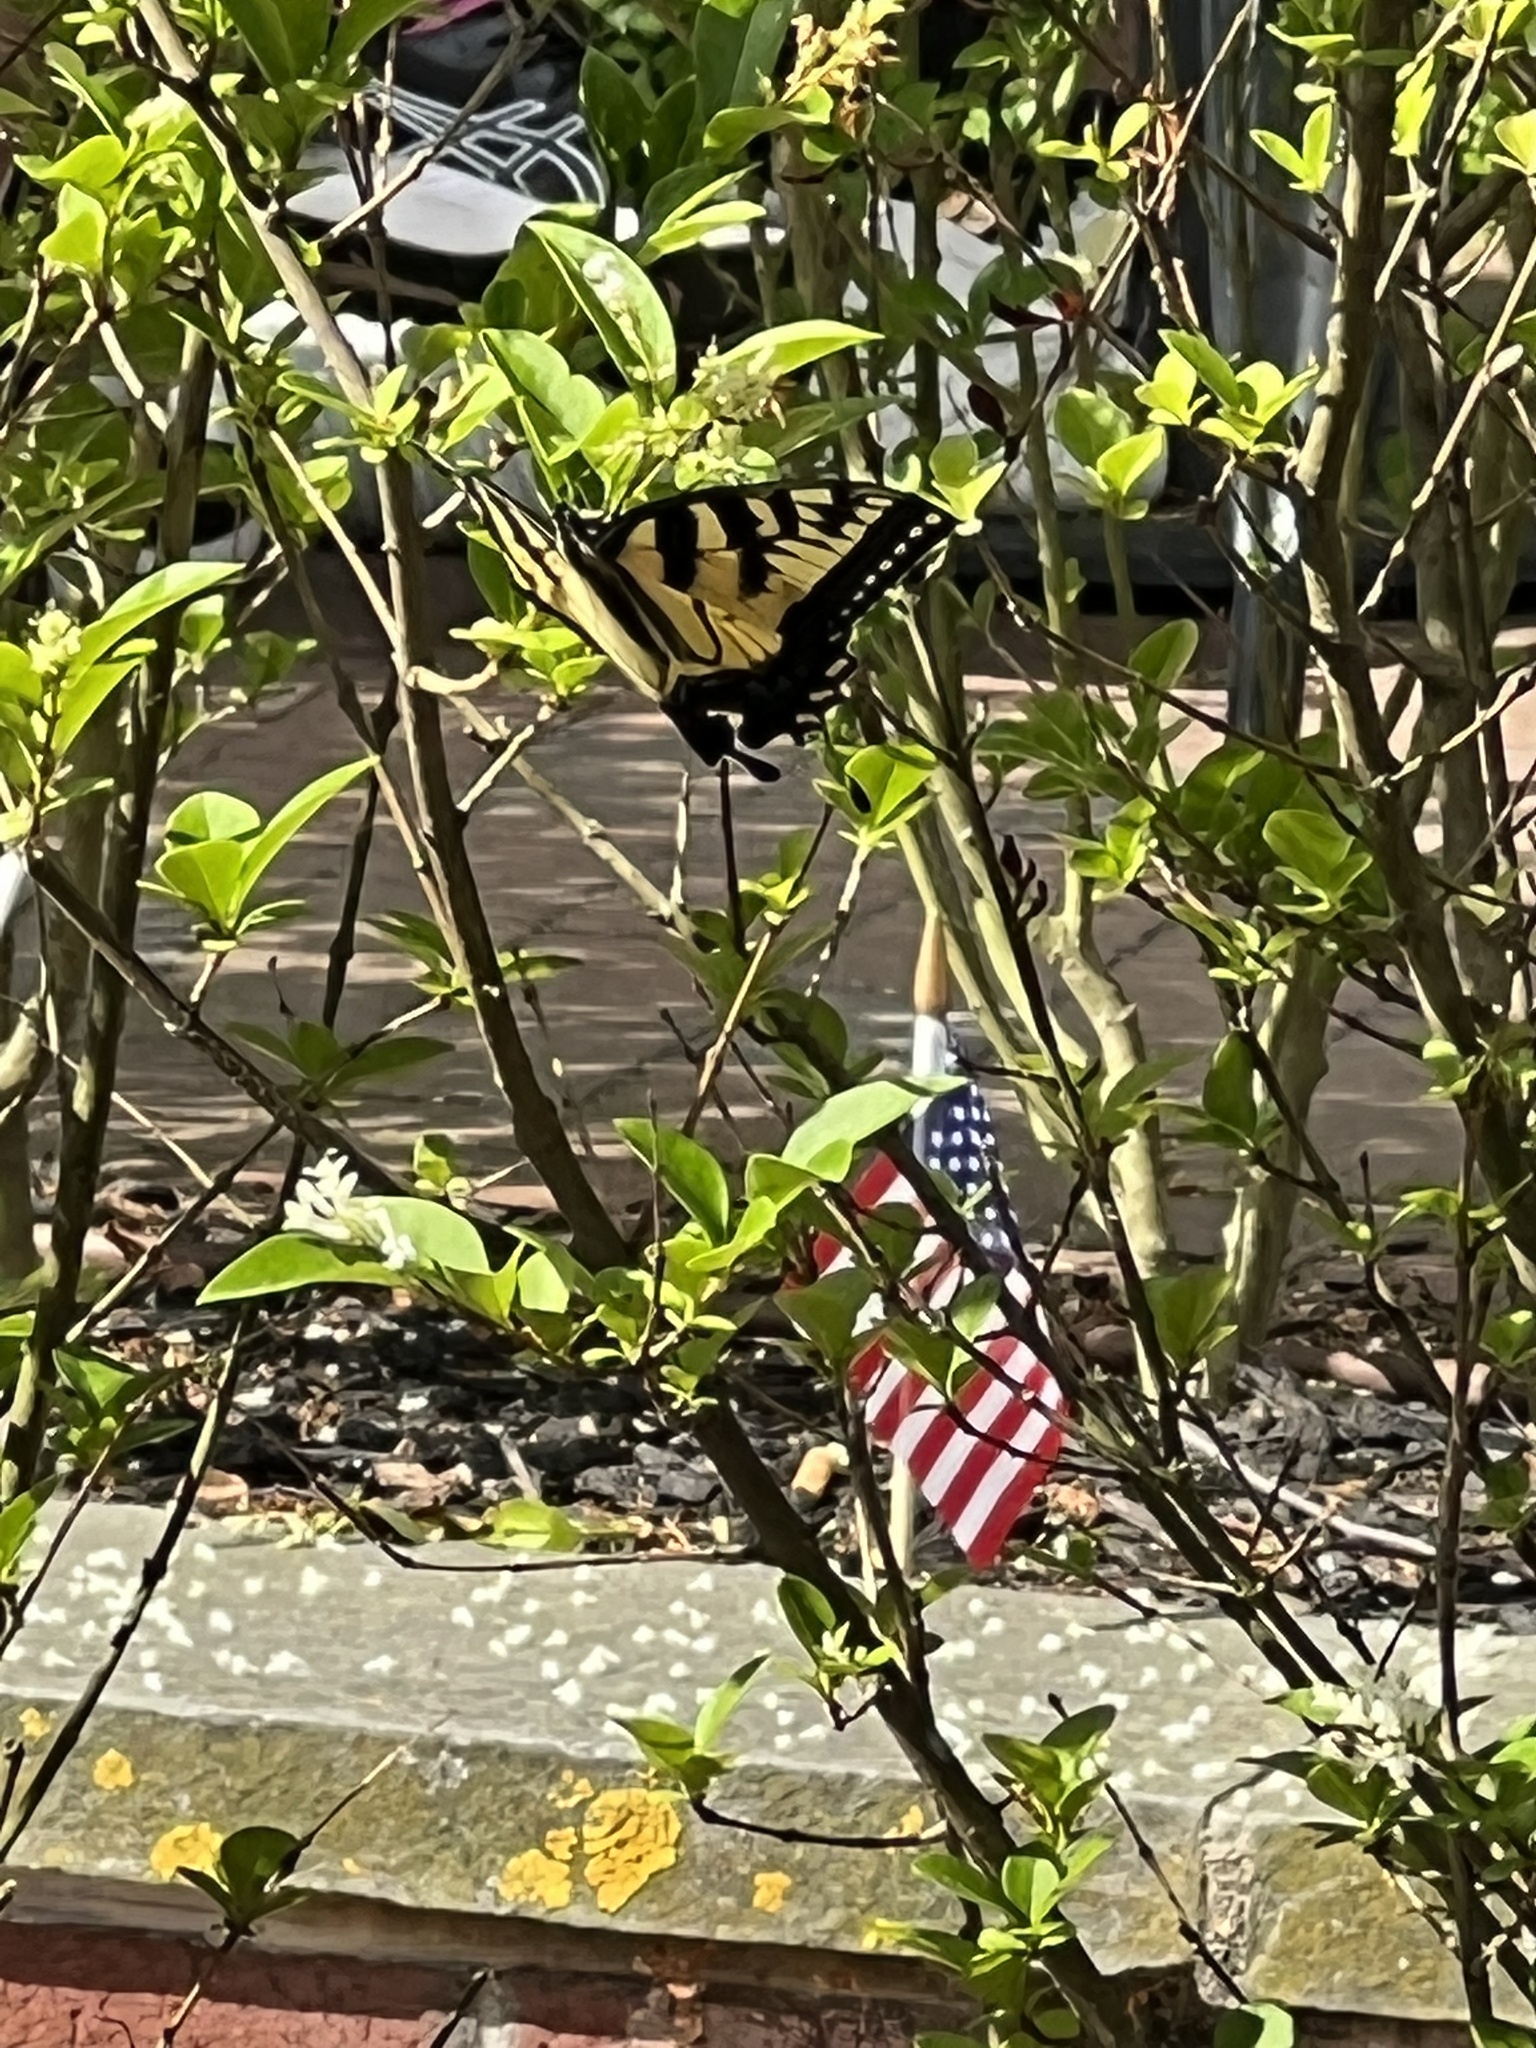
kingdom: Animalia
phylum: Arthropoda
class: Insecta
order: Lepidoptera
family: Papilionidae
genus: Papilio
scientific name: Papilio glaucus
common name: Tiger swallowtail
